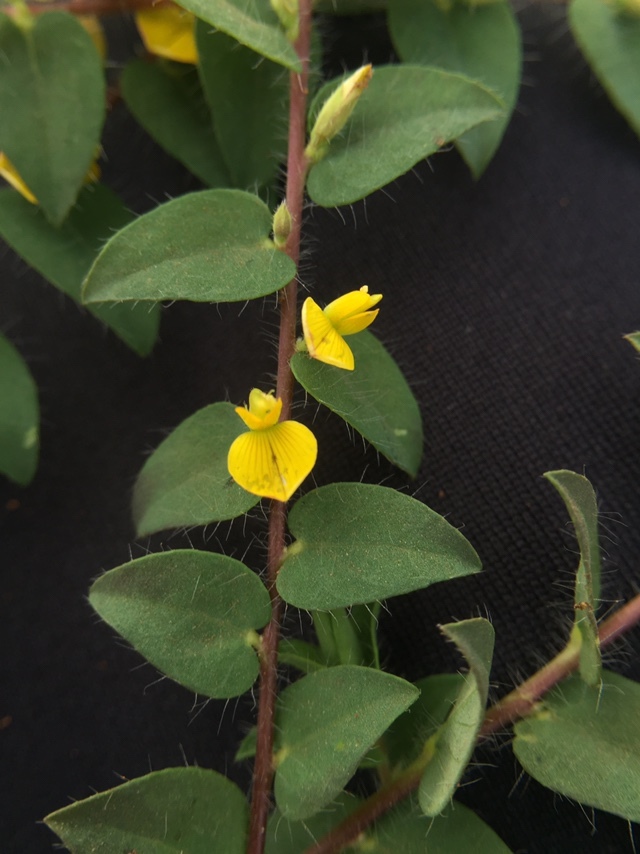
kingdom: Plantae
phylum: Tracheophyta
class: Magnoliopsida
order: Fabales
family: Fabaceae
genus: Crotalaria
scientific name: Crotalaria hebecarpa
